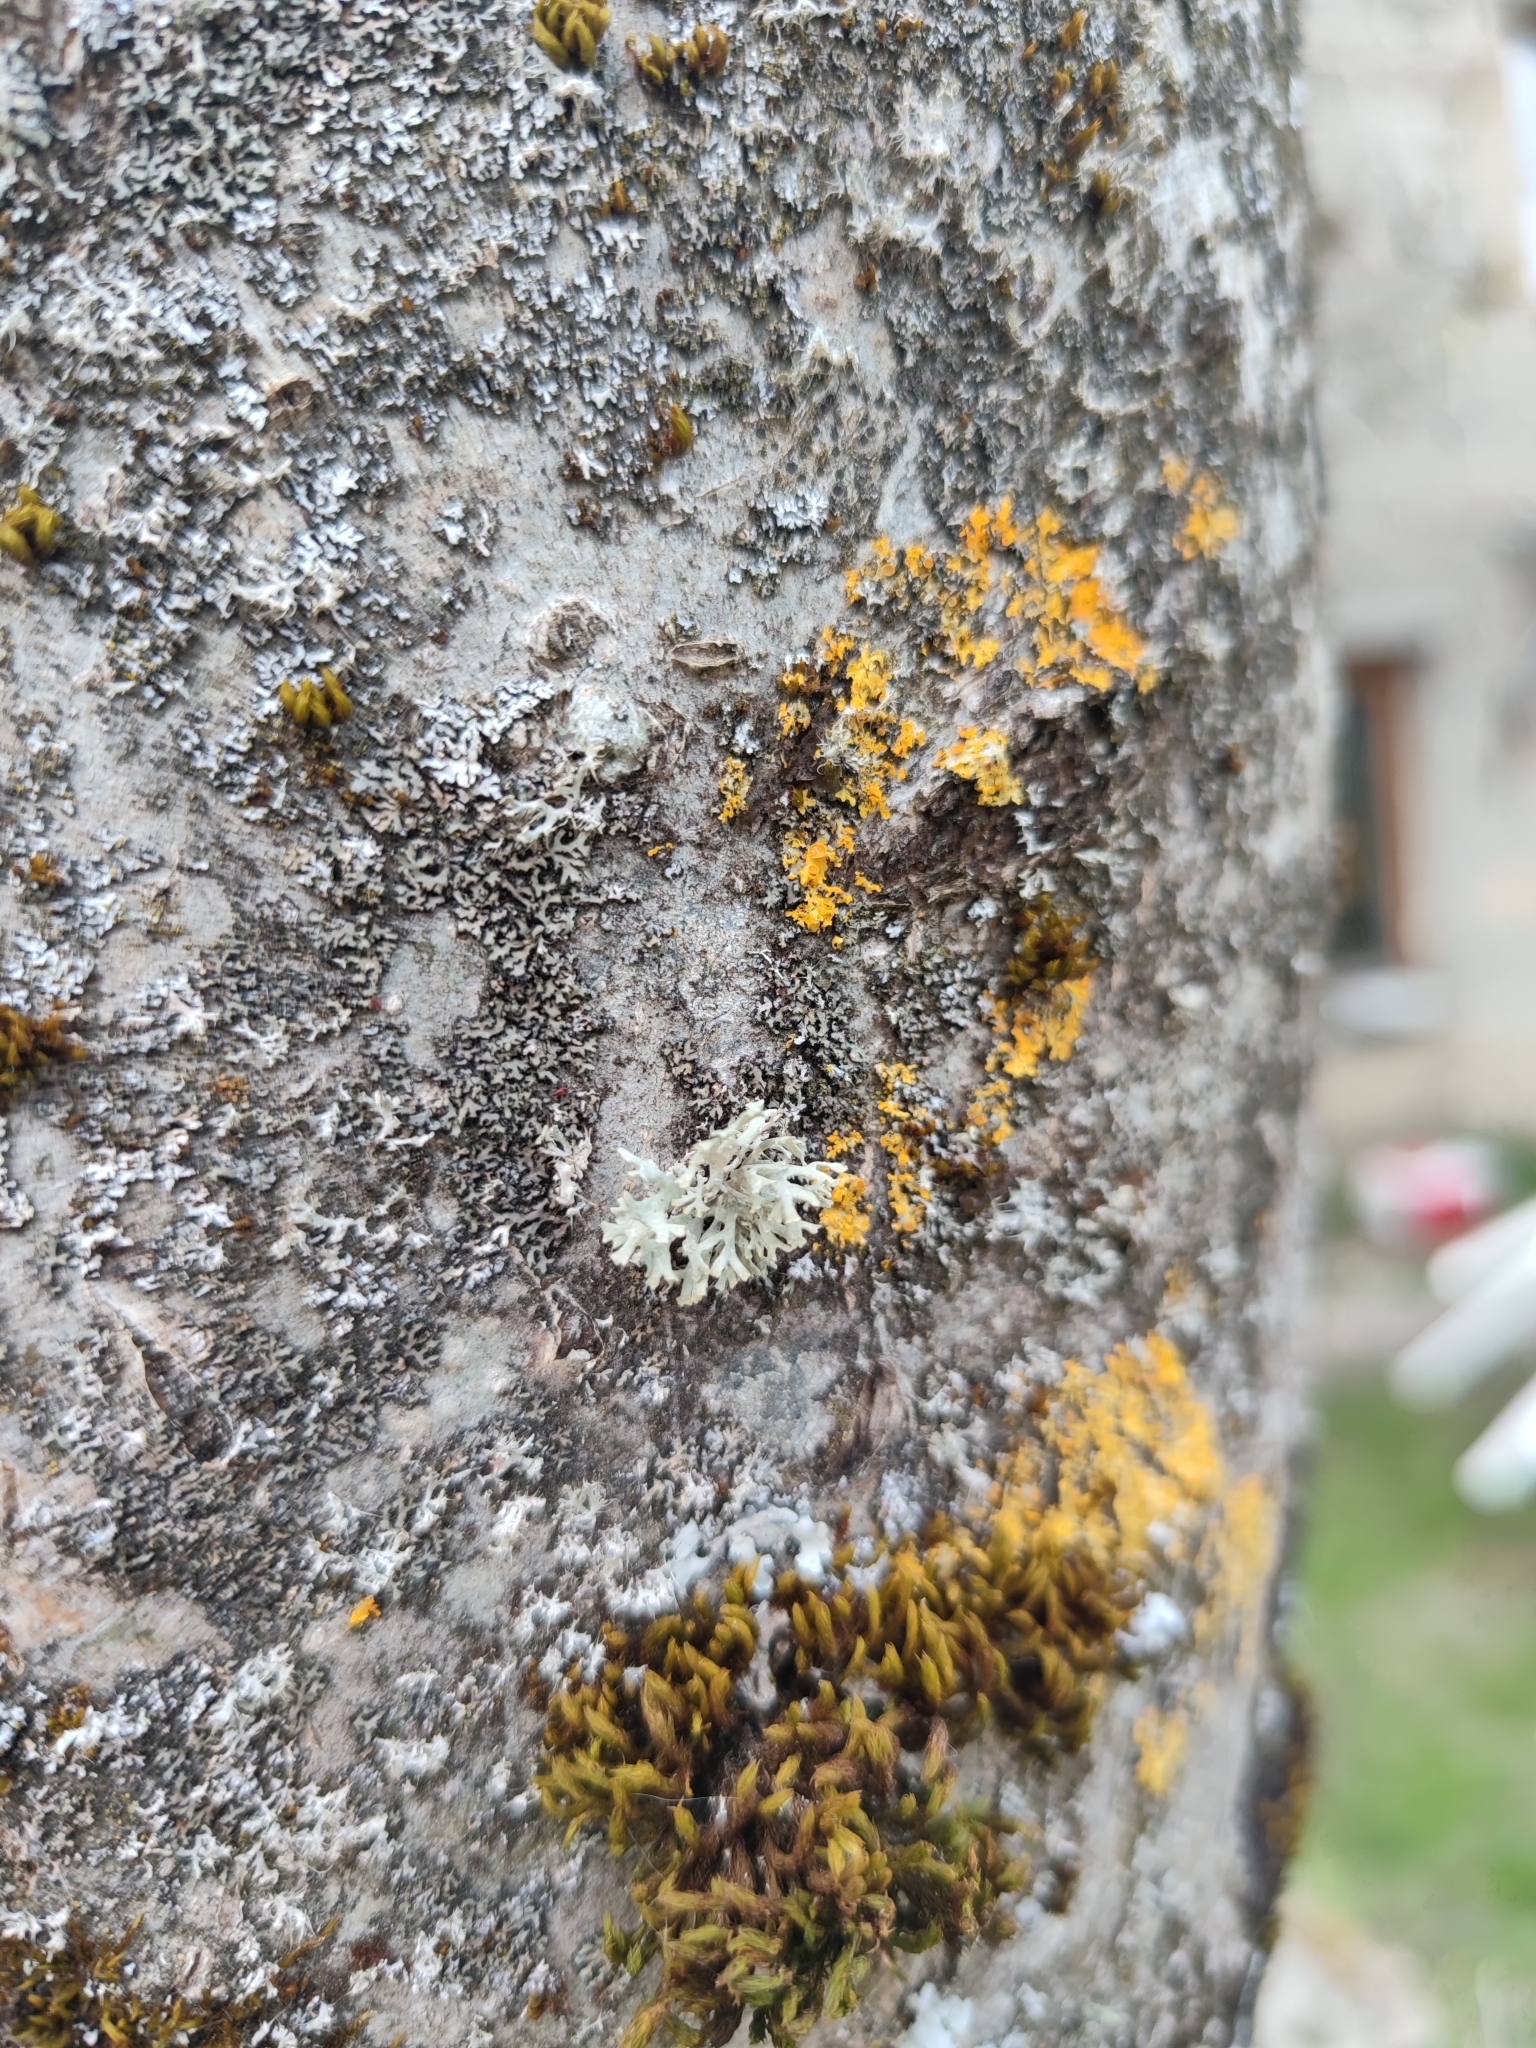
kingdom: Fungi
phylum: Ascomycota
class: Lecanoromycetes
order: Lecanorales
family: Parmeliaceae
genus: Evernia
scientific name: Evernia prunastri
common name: Oak moss
